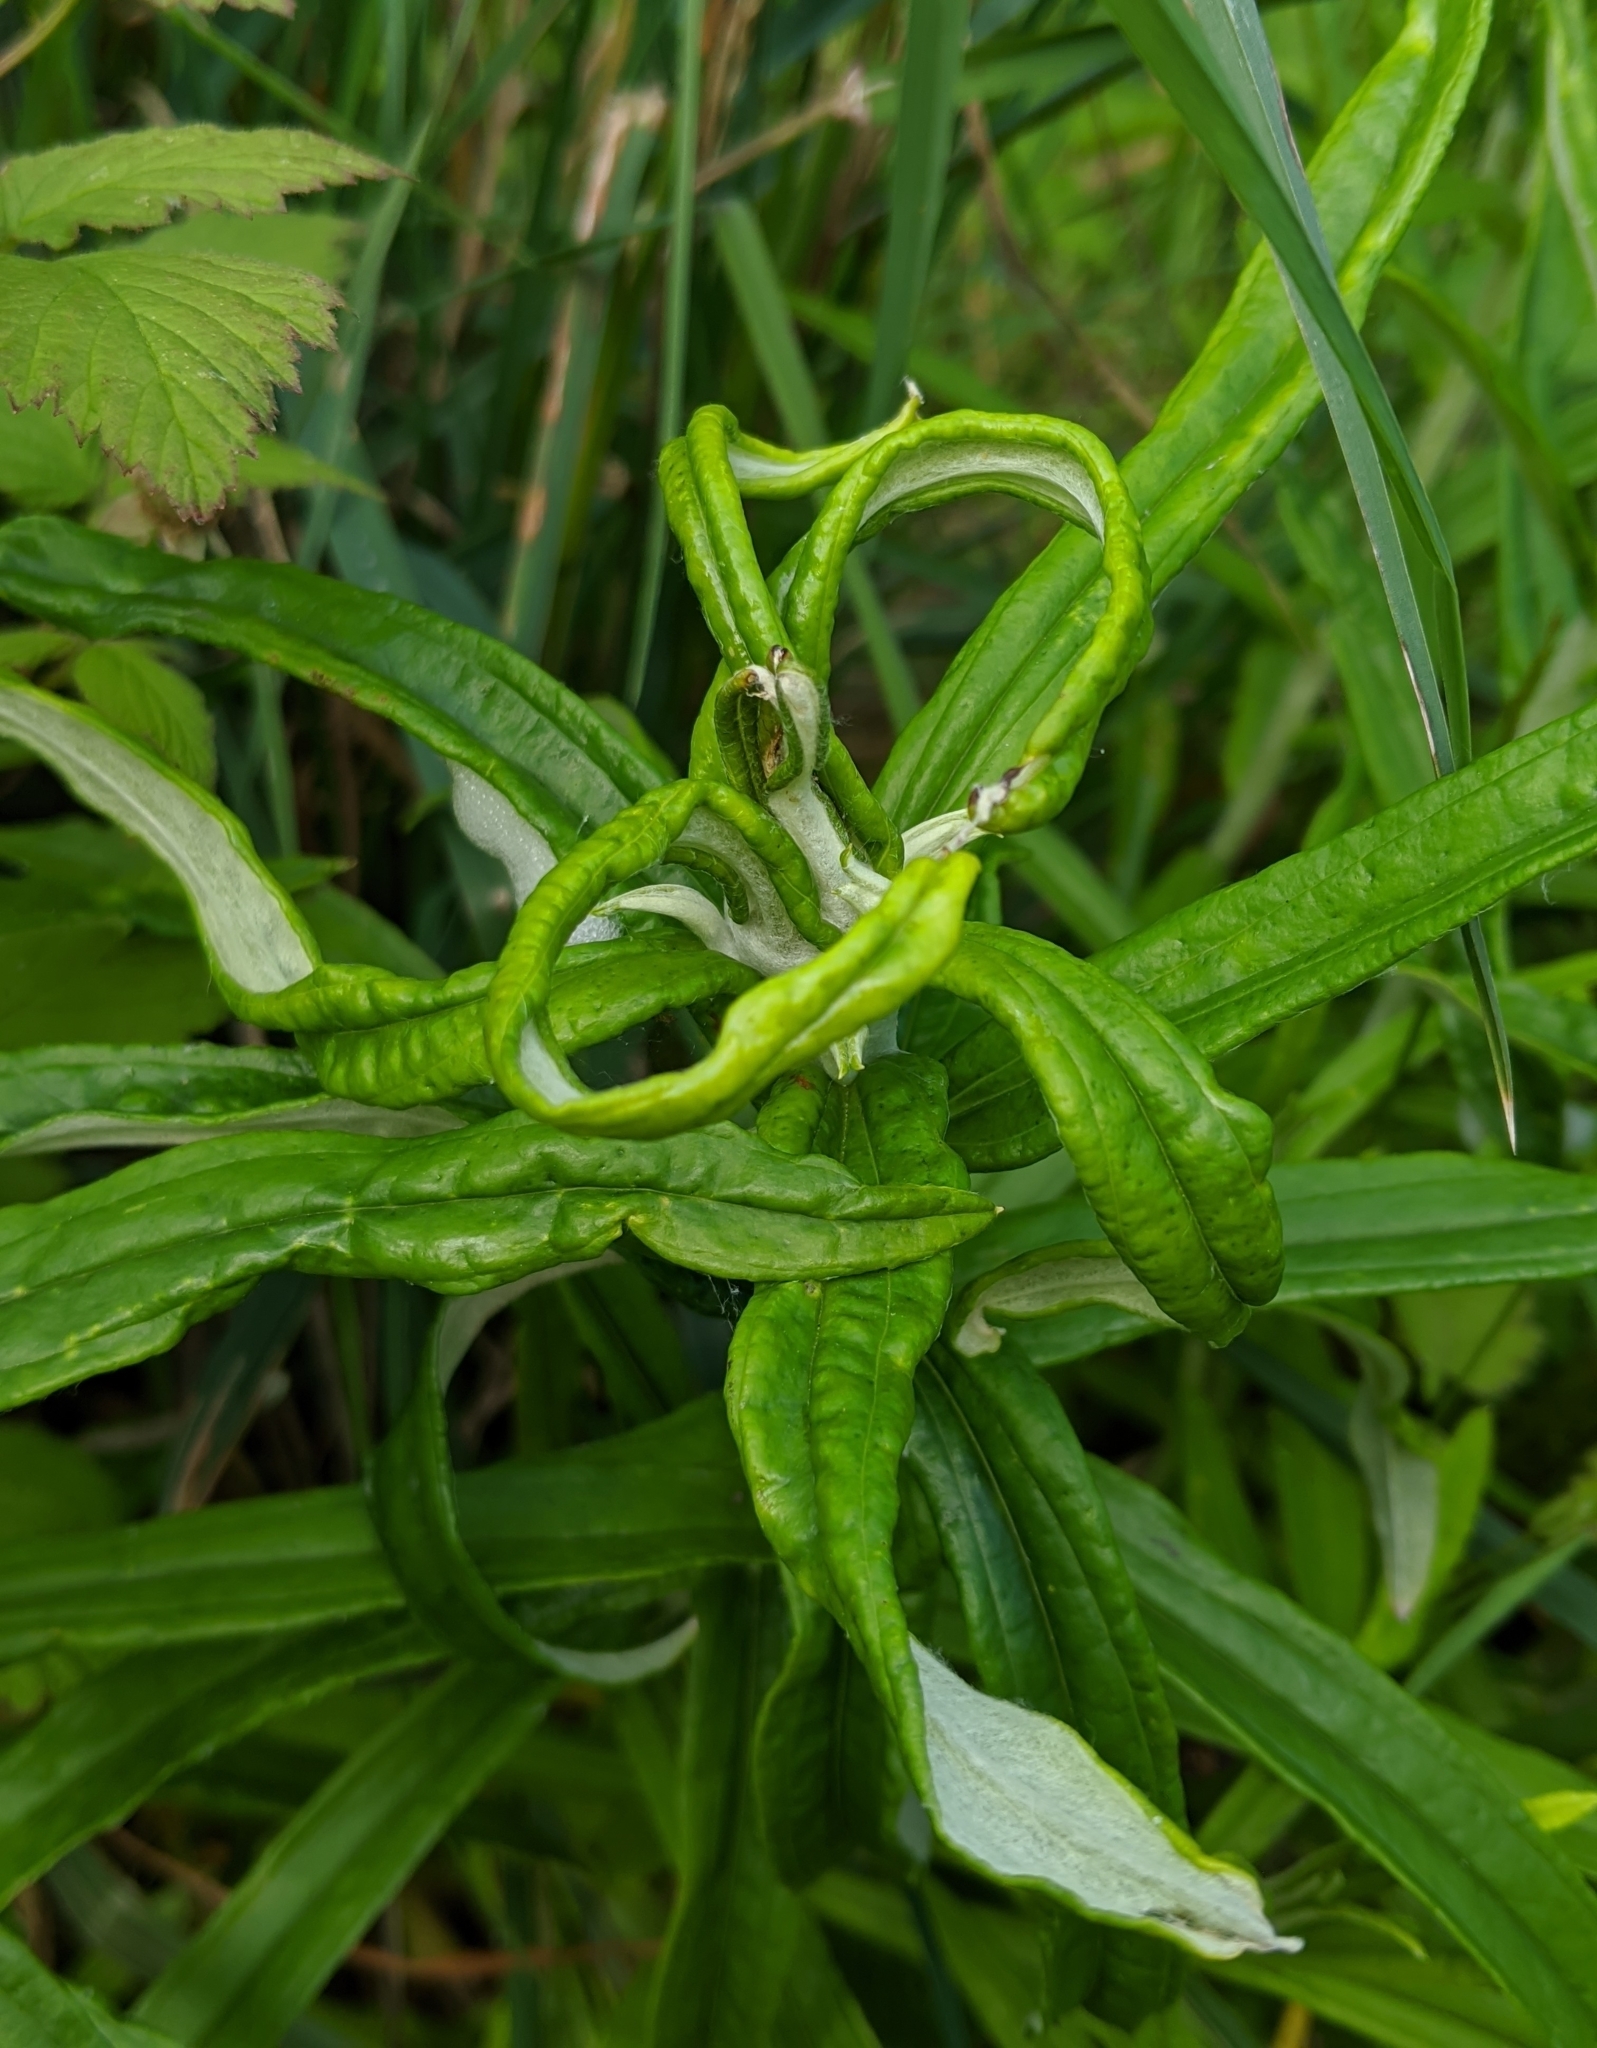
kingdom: Plantae
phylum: Tracheophyta
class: Magnoliopsida
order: Asterales
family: Asteraceae
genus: Anaphalis
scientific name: Anaphalis margaritacea
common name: Pearly everlasting
